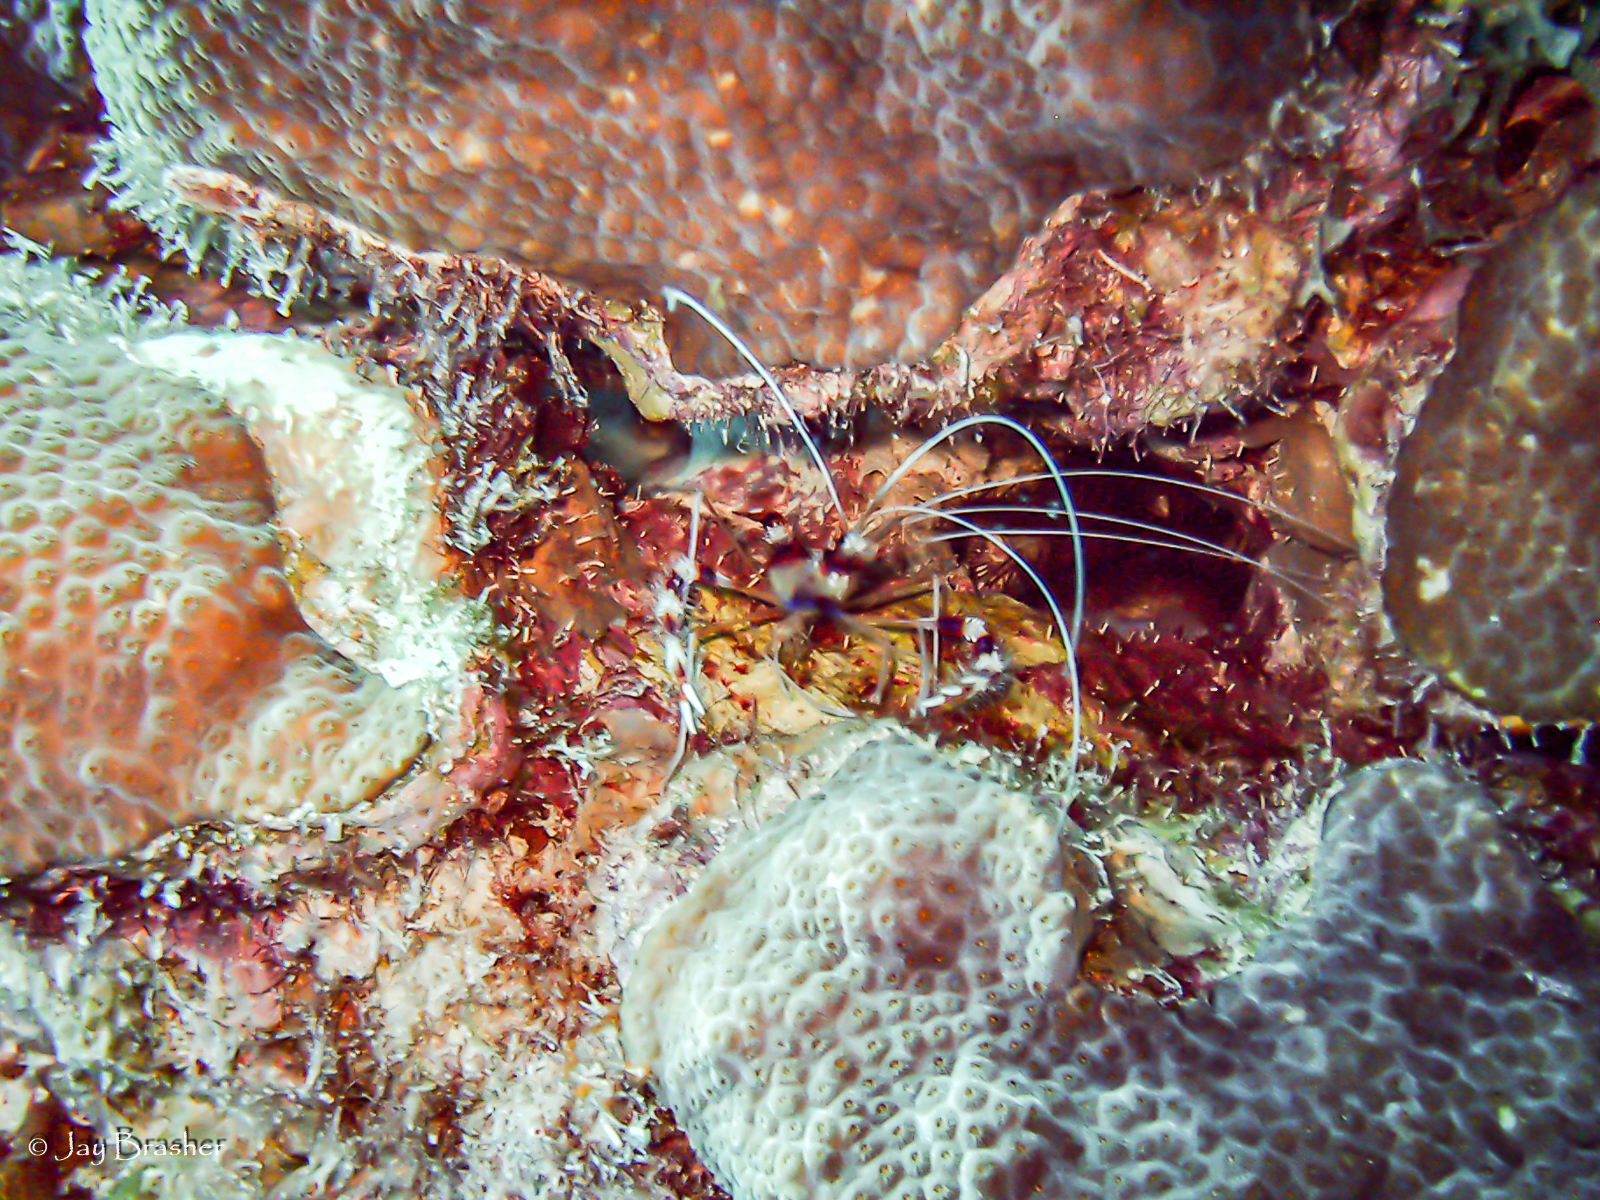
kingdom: Animalia
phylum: Arthropoda
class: Malacostraca
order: Decapoda
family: Stenopodidae
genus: Stenopus
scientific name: Stenopus hispidus
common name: Banded coral shrimp
